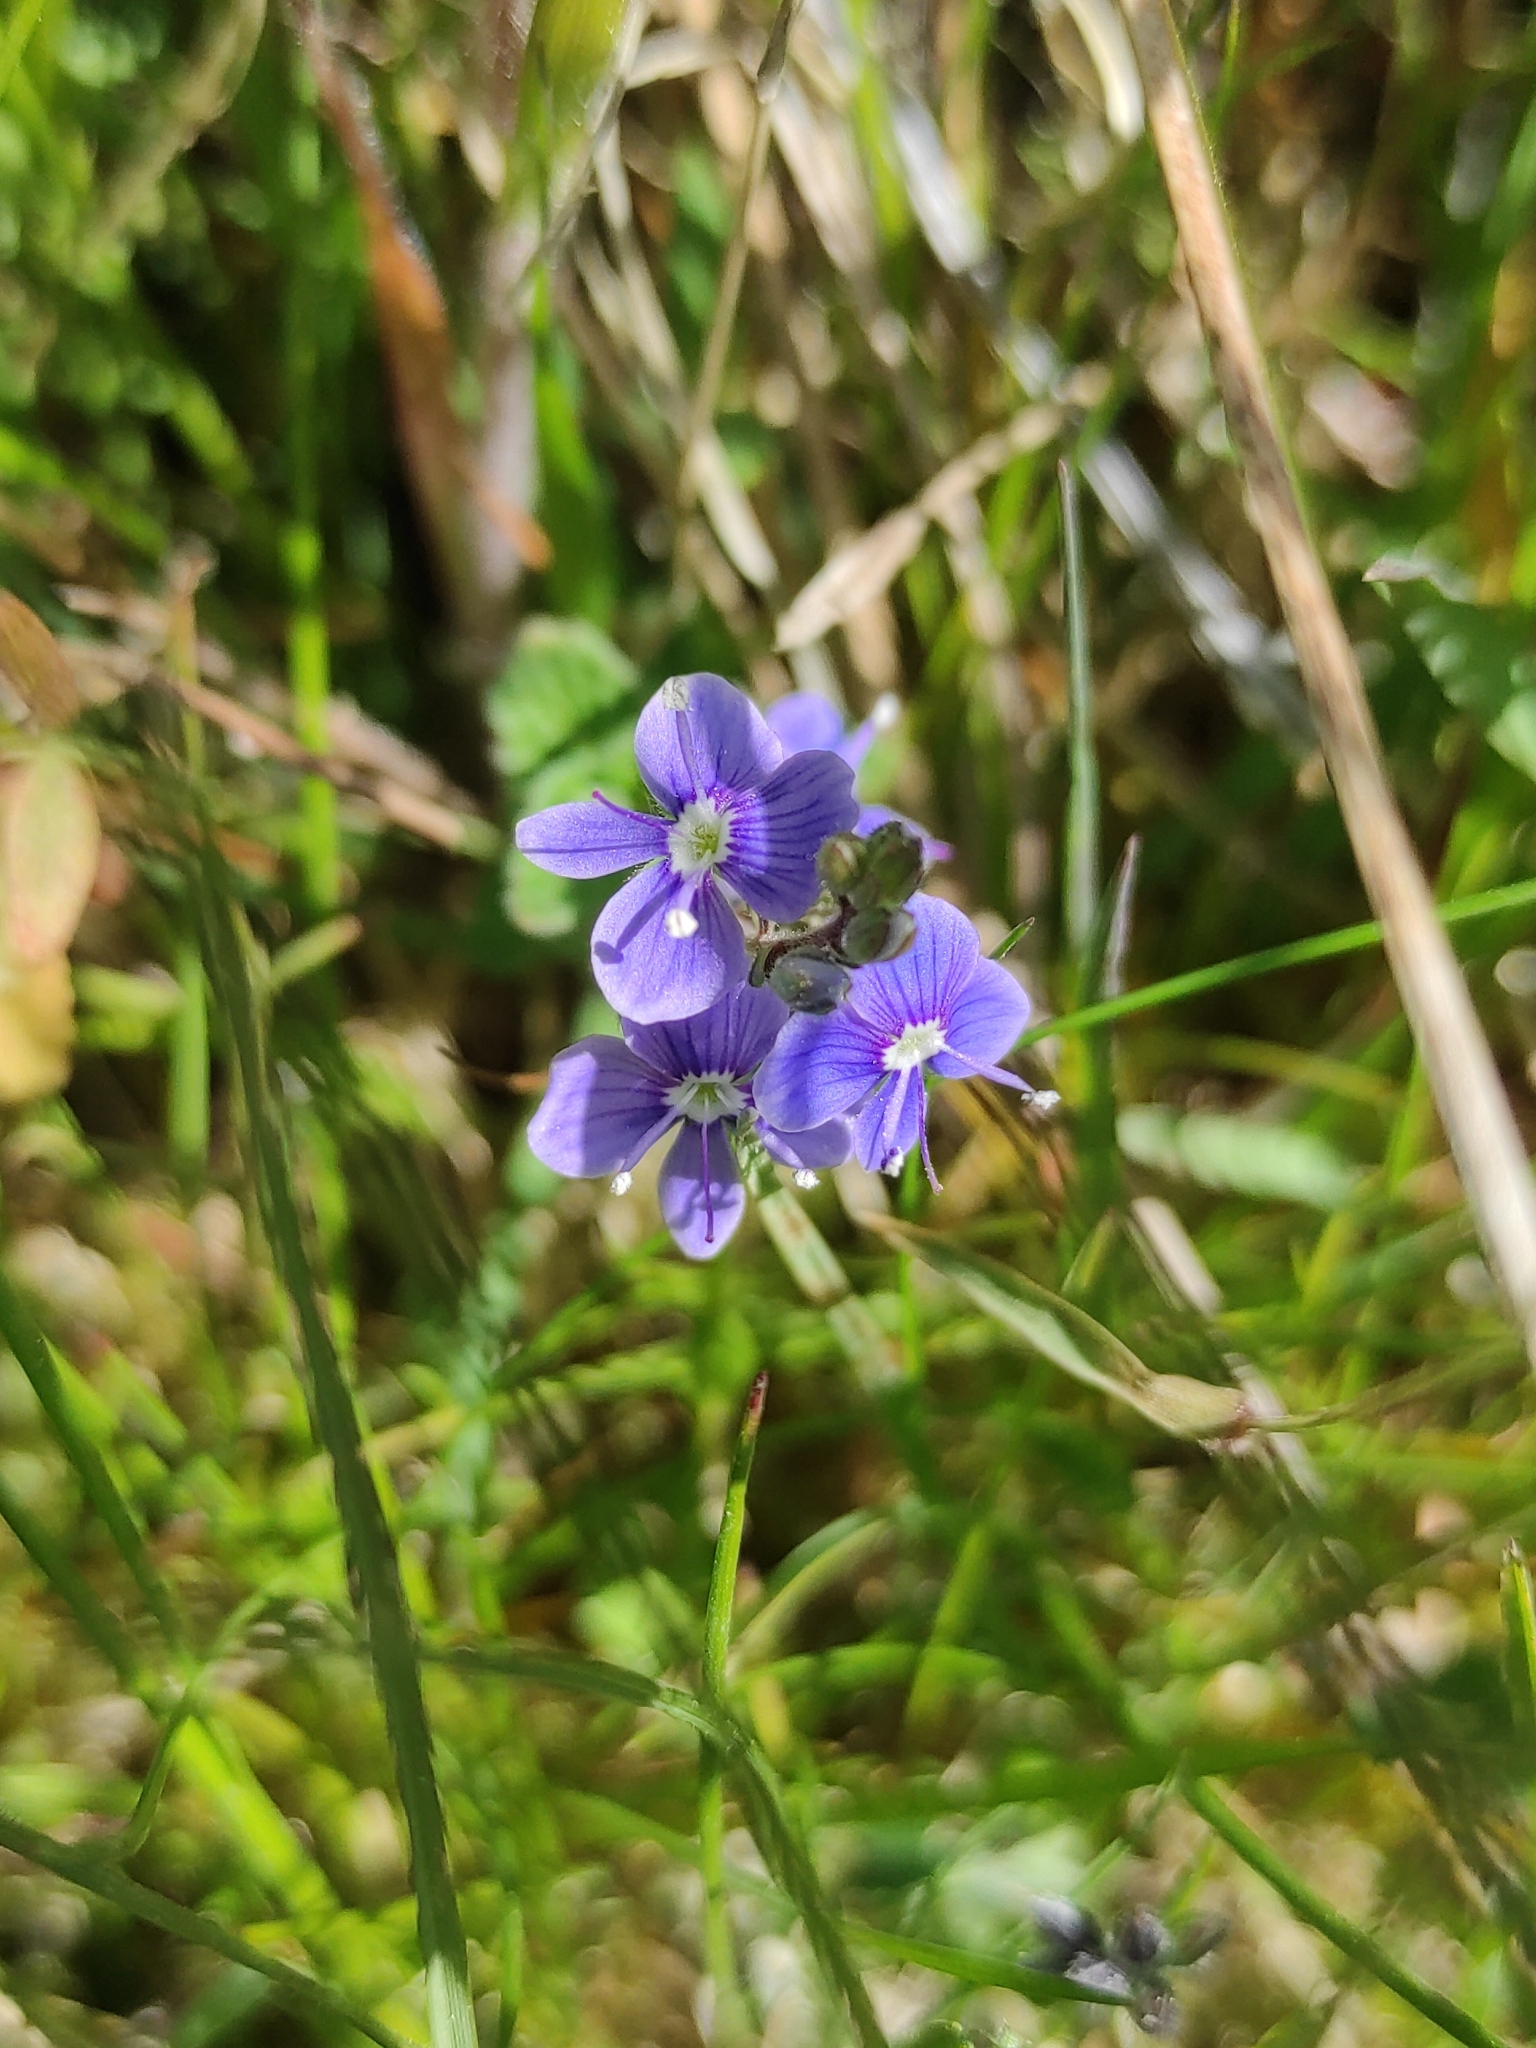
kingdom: Plantae
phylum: Tracheophyta
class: Magnoliopsida
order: Lamiales
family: Plantaginaceae
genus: Veronica
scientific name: Veronica chamaedrys
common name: Germander speedwell
